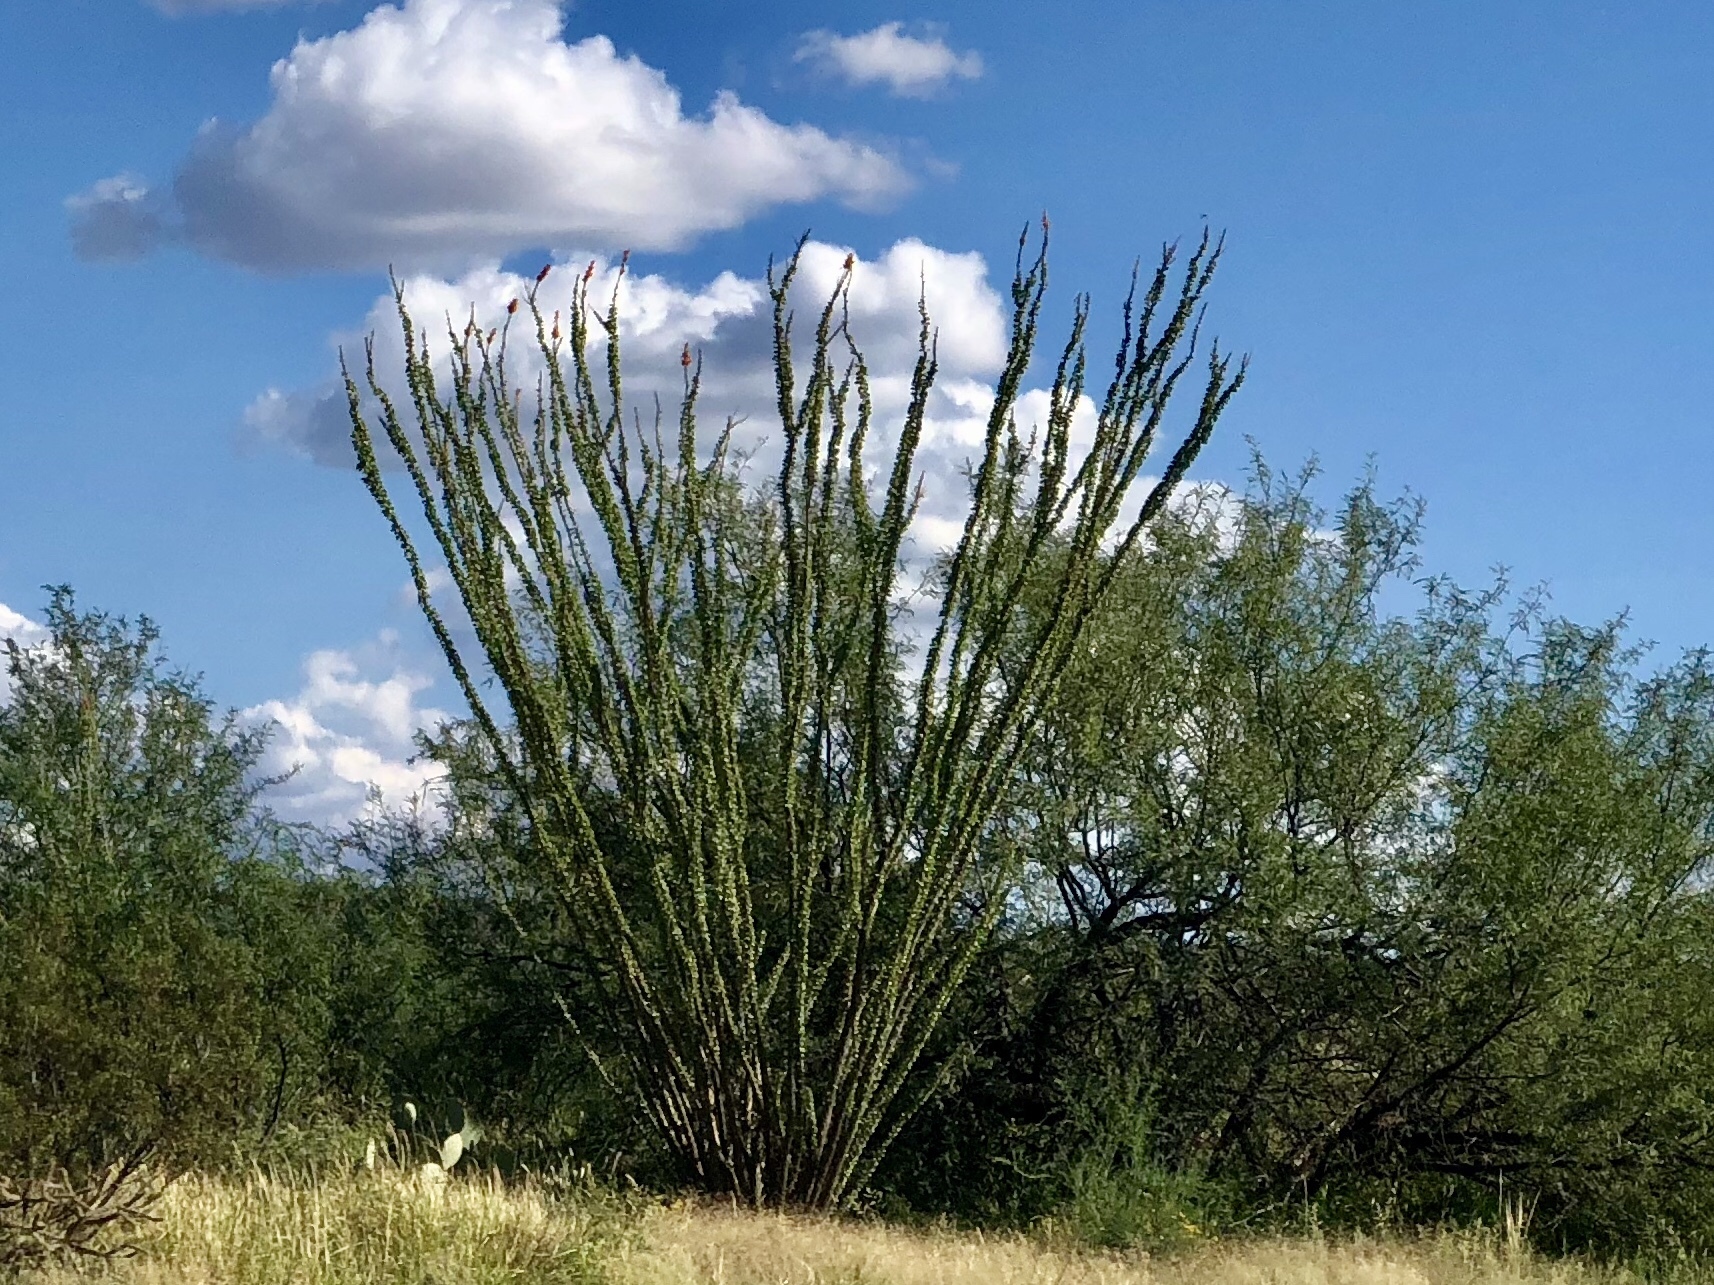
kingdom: Plantae
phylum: Tracheophyta
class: Magnoliopsida
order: Ericales
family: Fouquieriaceae
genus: Fouquieria
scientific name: Fouquieria splendens
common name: Vine-cactus
